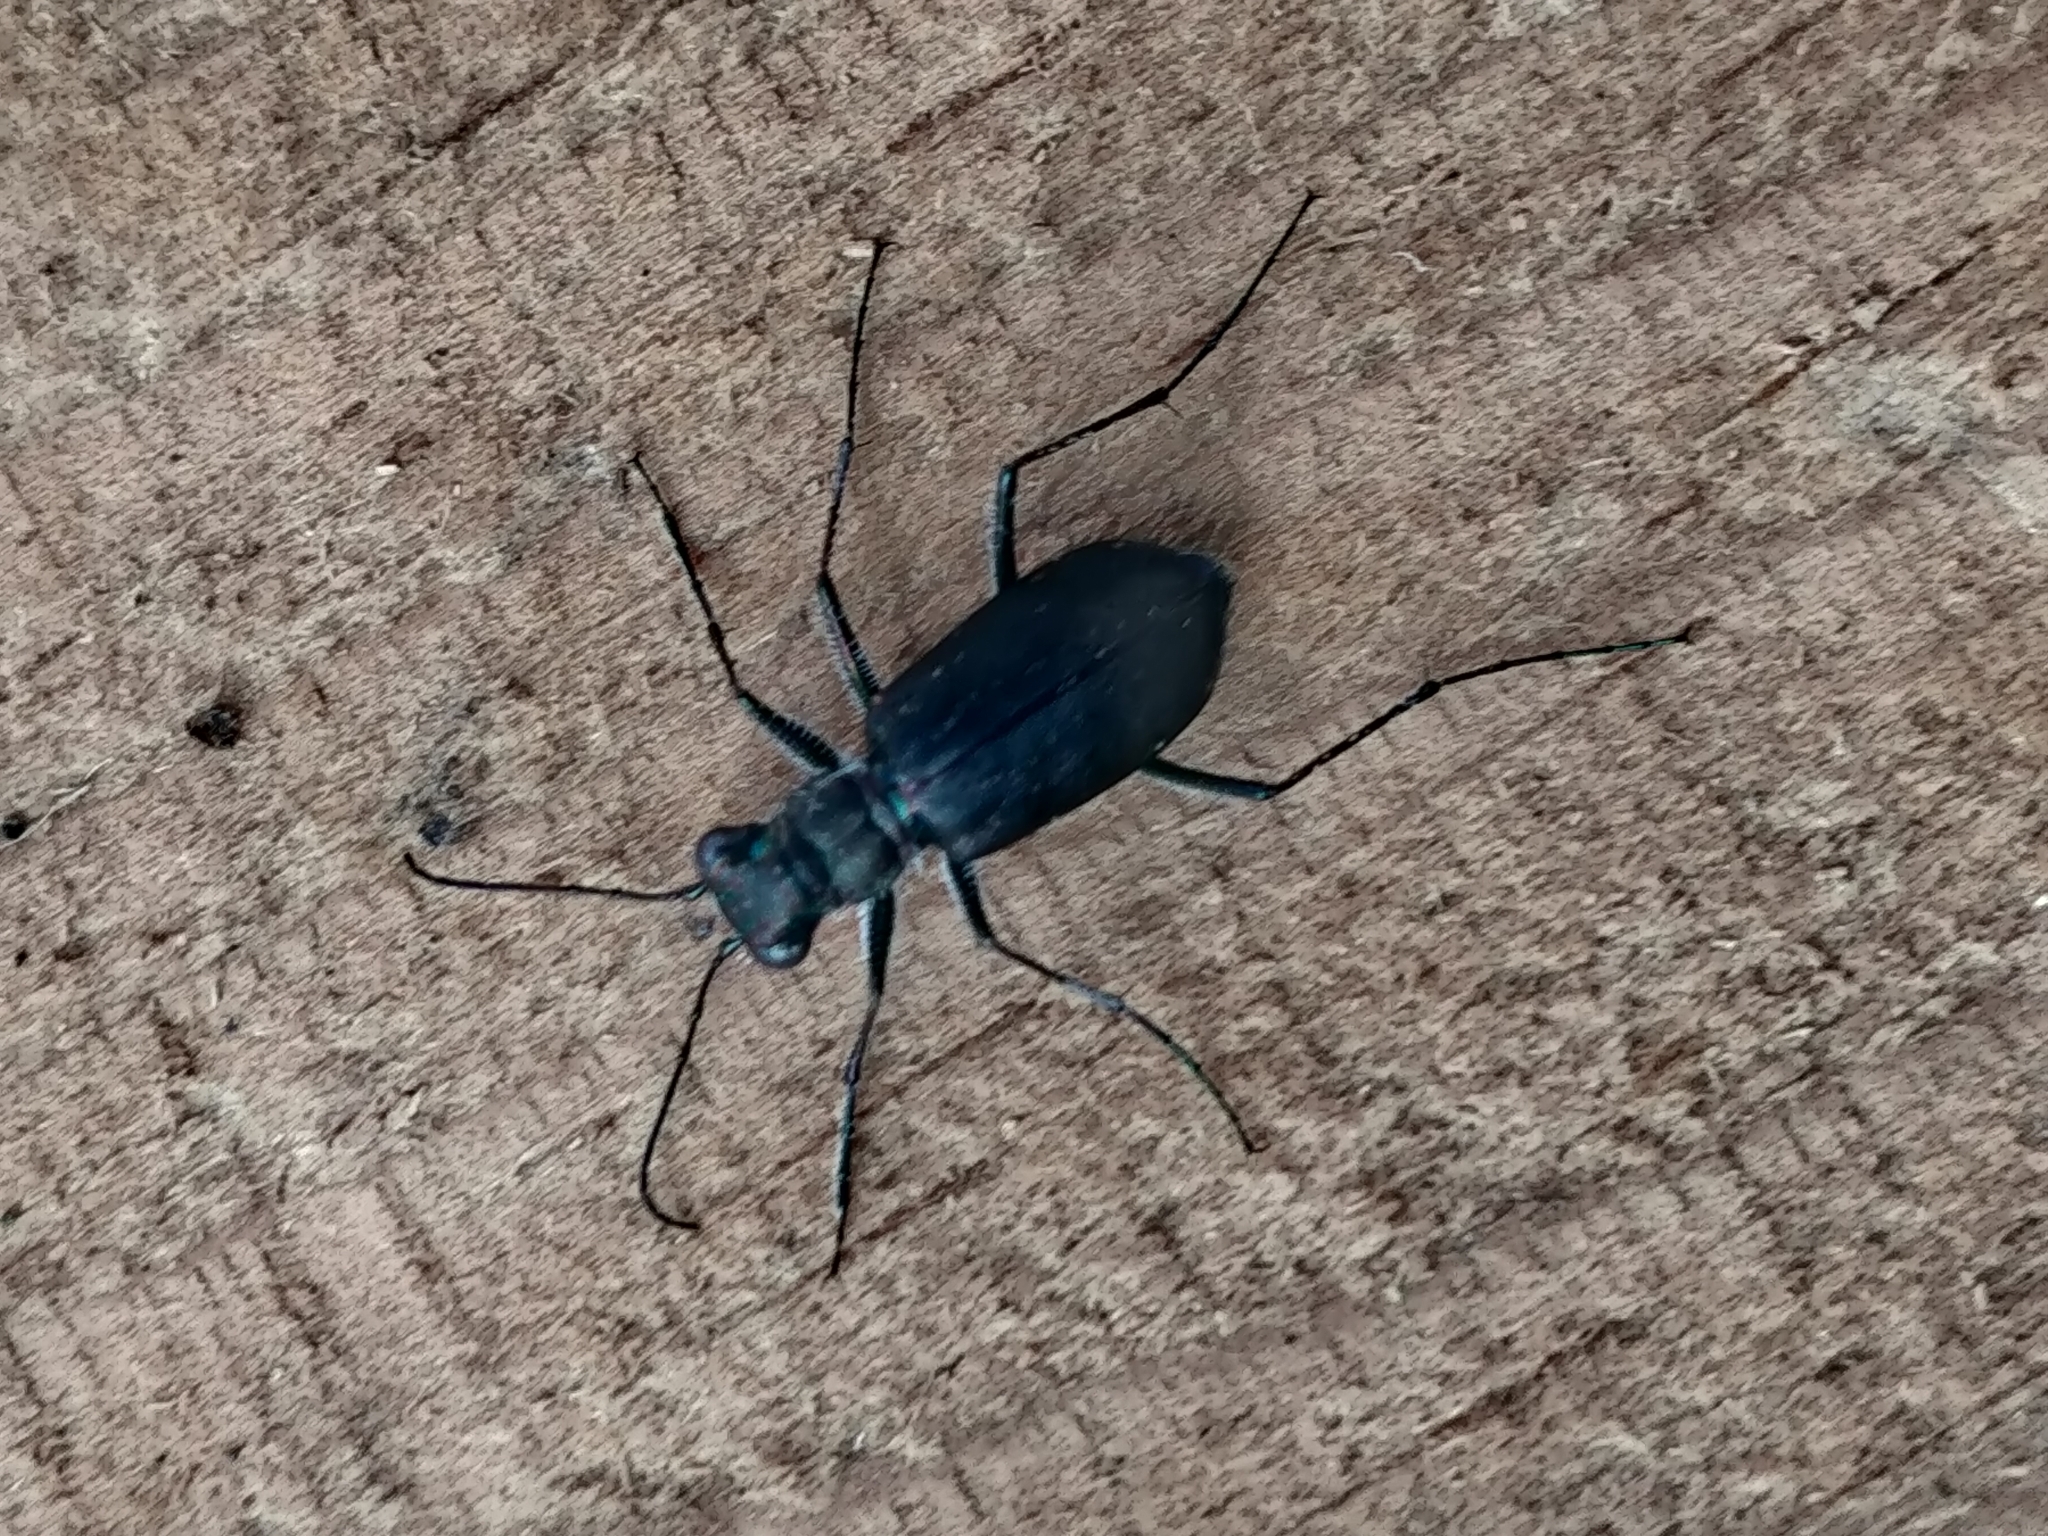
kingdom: Animalia
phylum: Arthropoda
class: Insecta
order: Coleoptera
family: Carabidae
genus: Cicindela
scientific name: Cicindela punctulata
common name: Punctured tiger beetle
